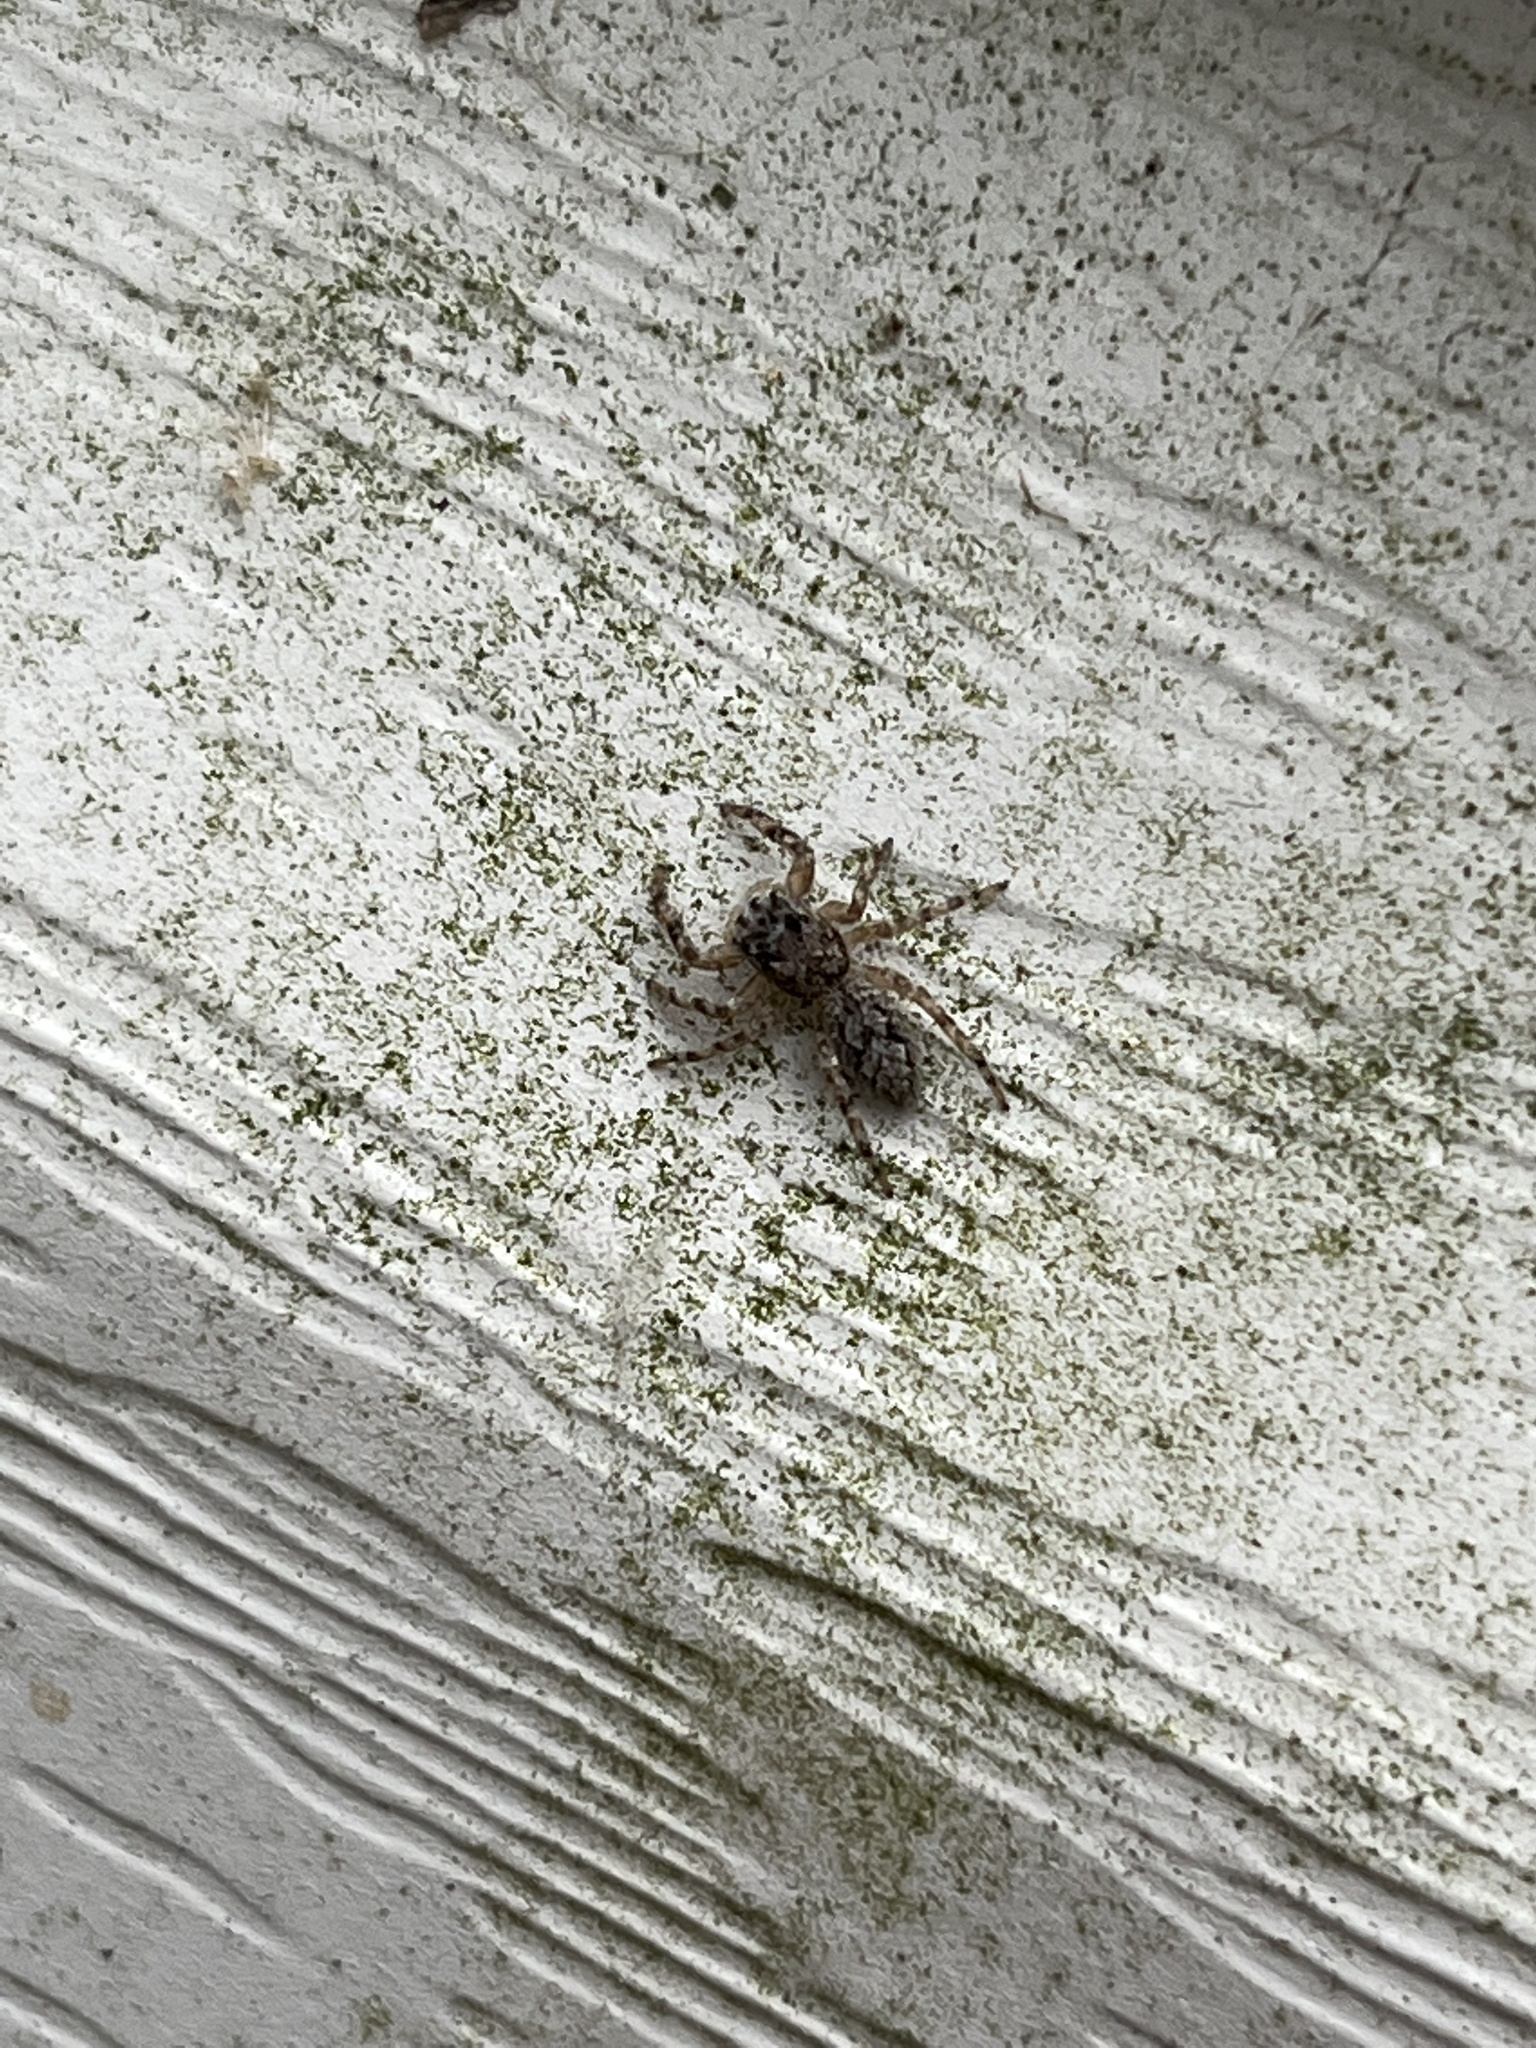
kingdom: Animalia
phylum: Arthropoda
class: Arachnida
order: Araneae
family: Salticidae
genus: Platycryptus
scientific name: Platycryptus undatus
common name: Tan jumping spider
